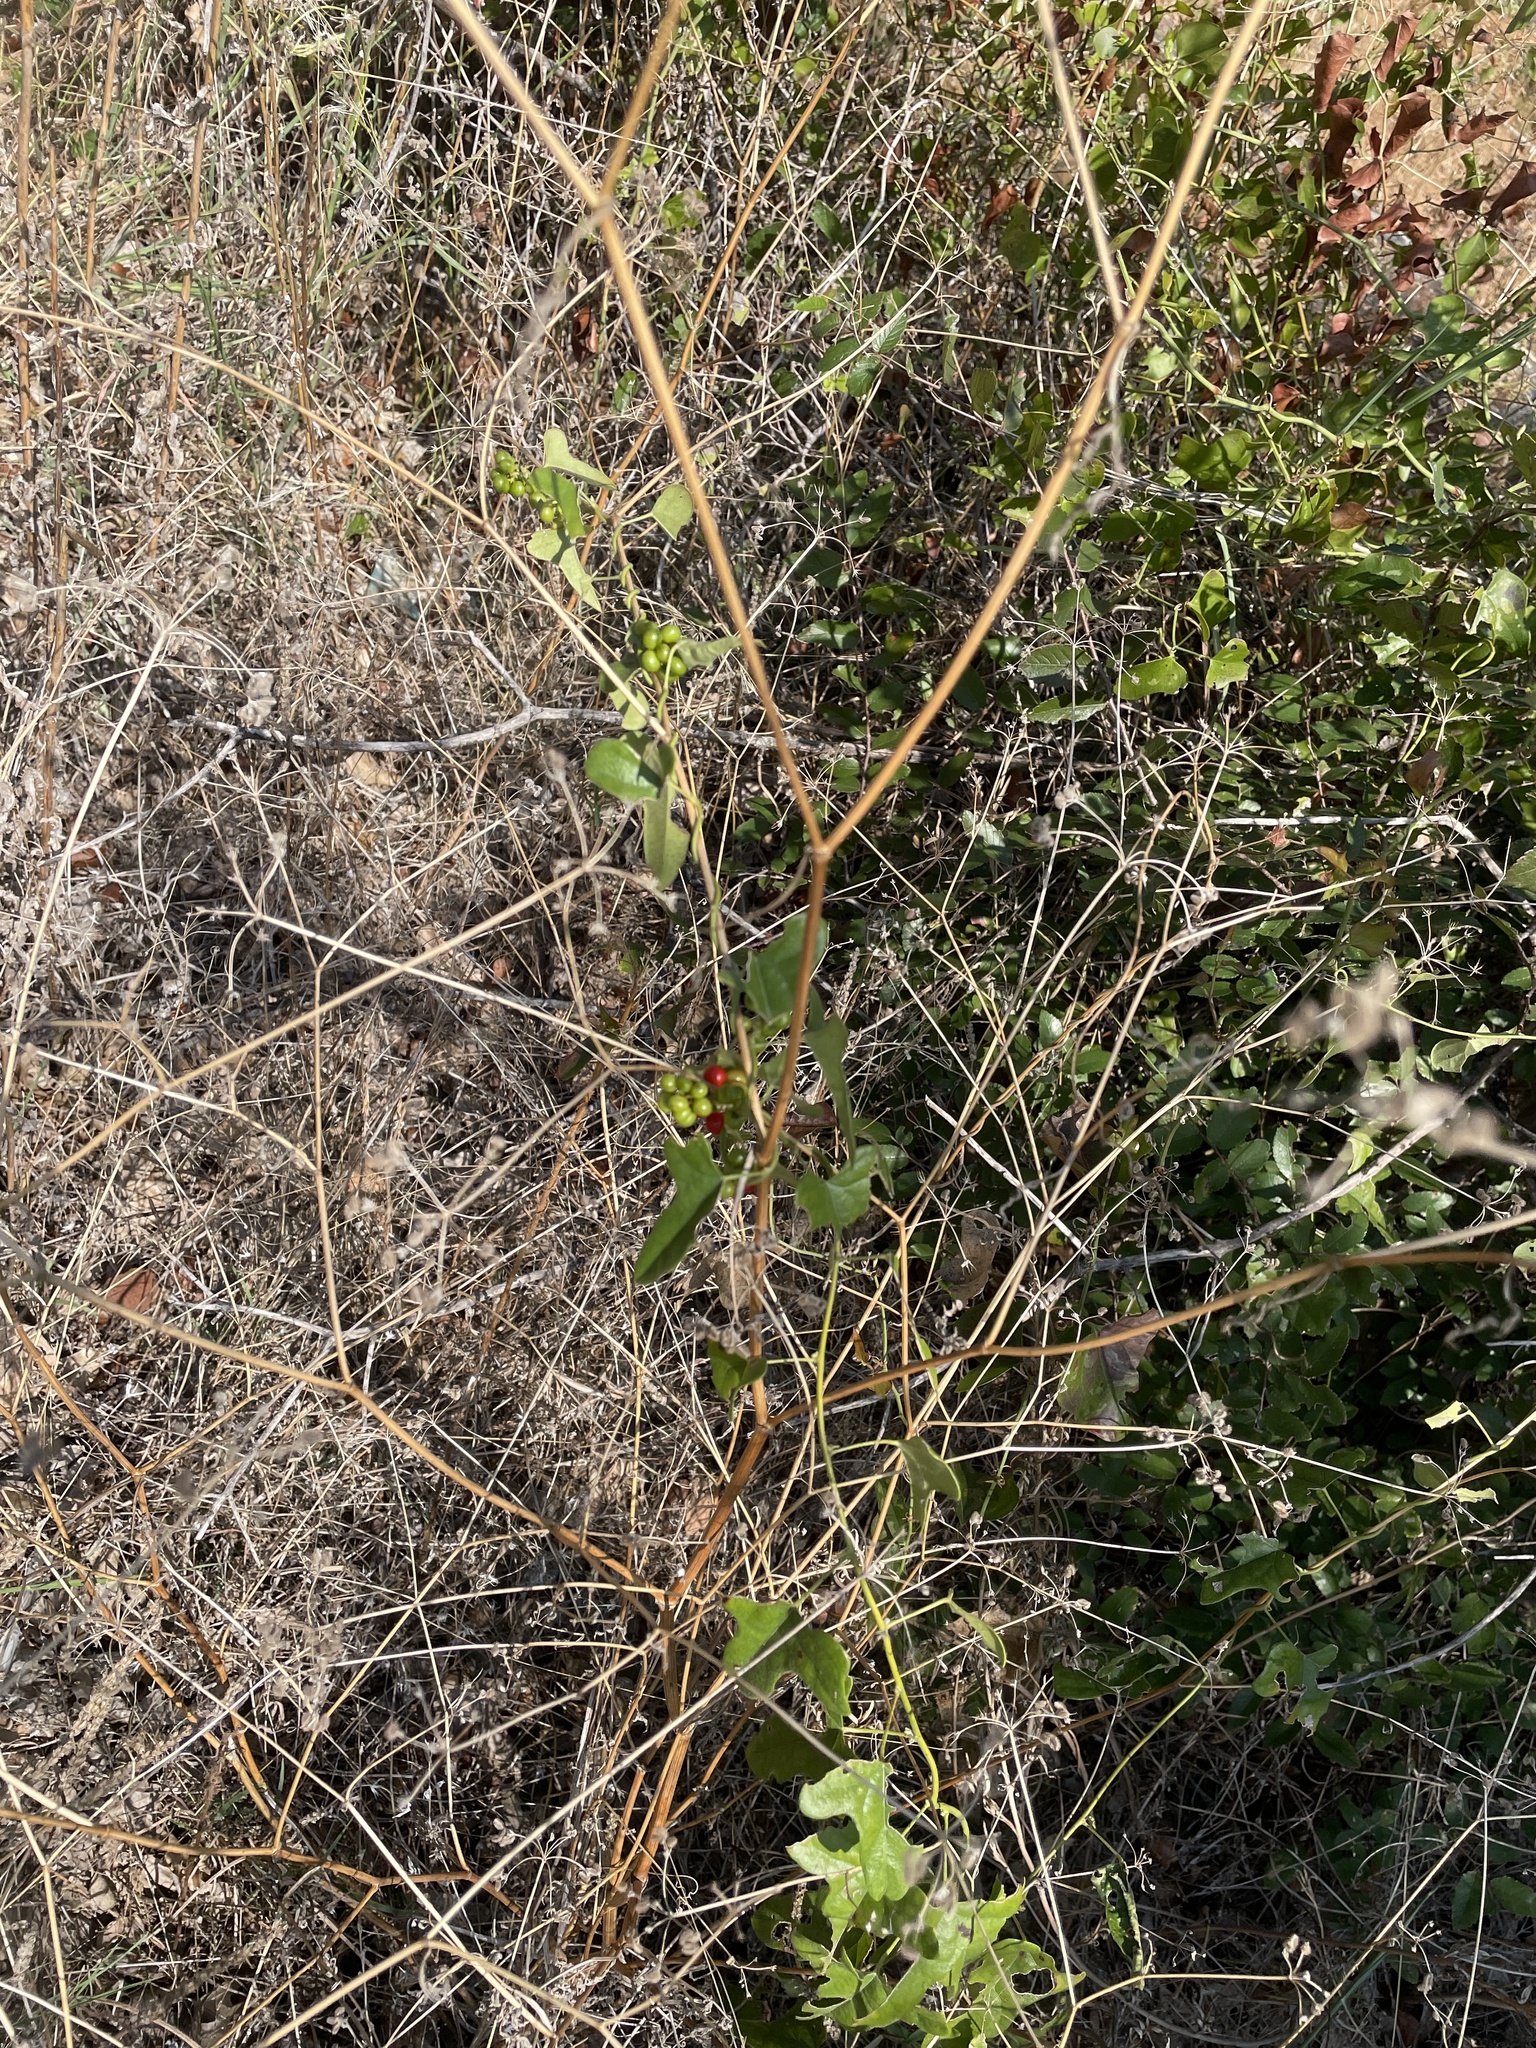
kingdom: Plantae
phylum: Tracheophyta
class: Magnoliopsida
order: Ranunculales
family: Menispermaceae
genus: Cocculus
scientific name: Cocculus carolinus
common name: Carolina moonseed
